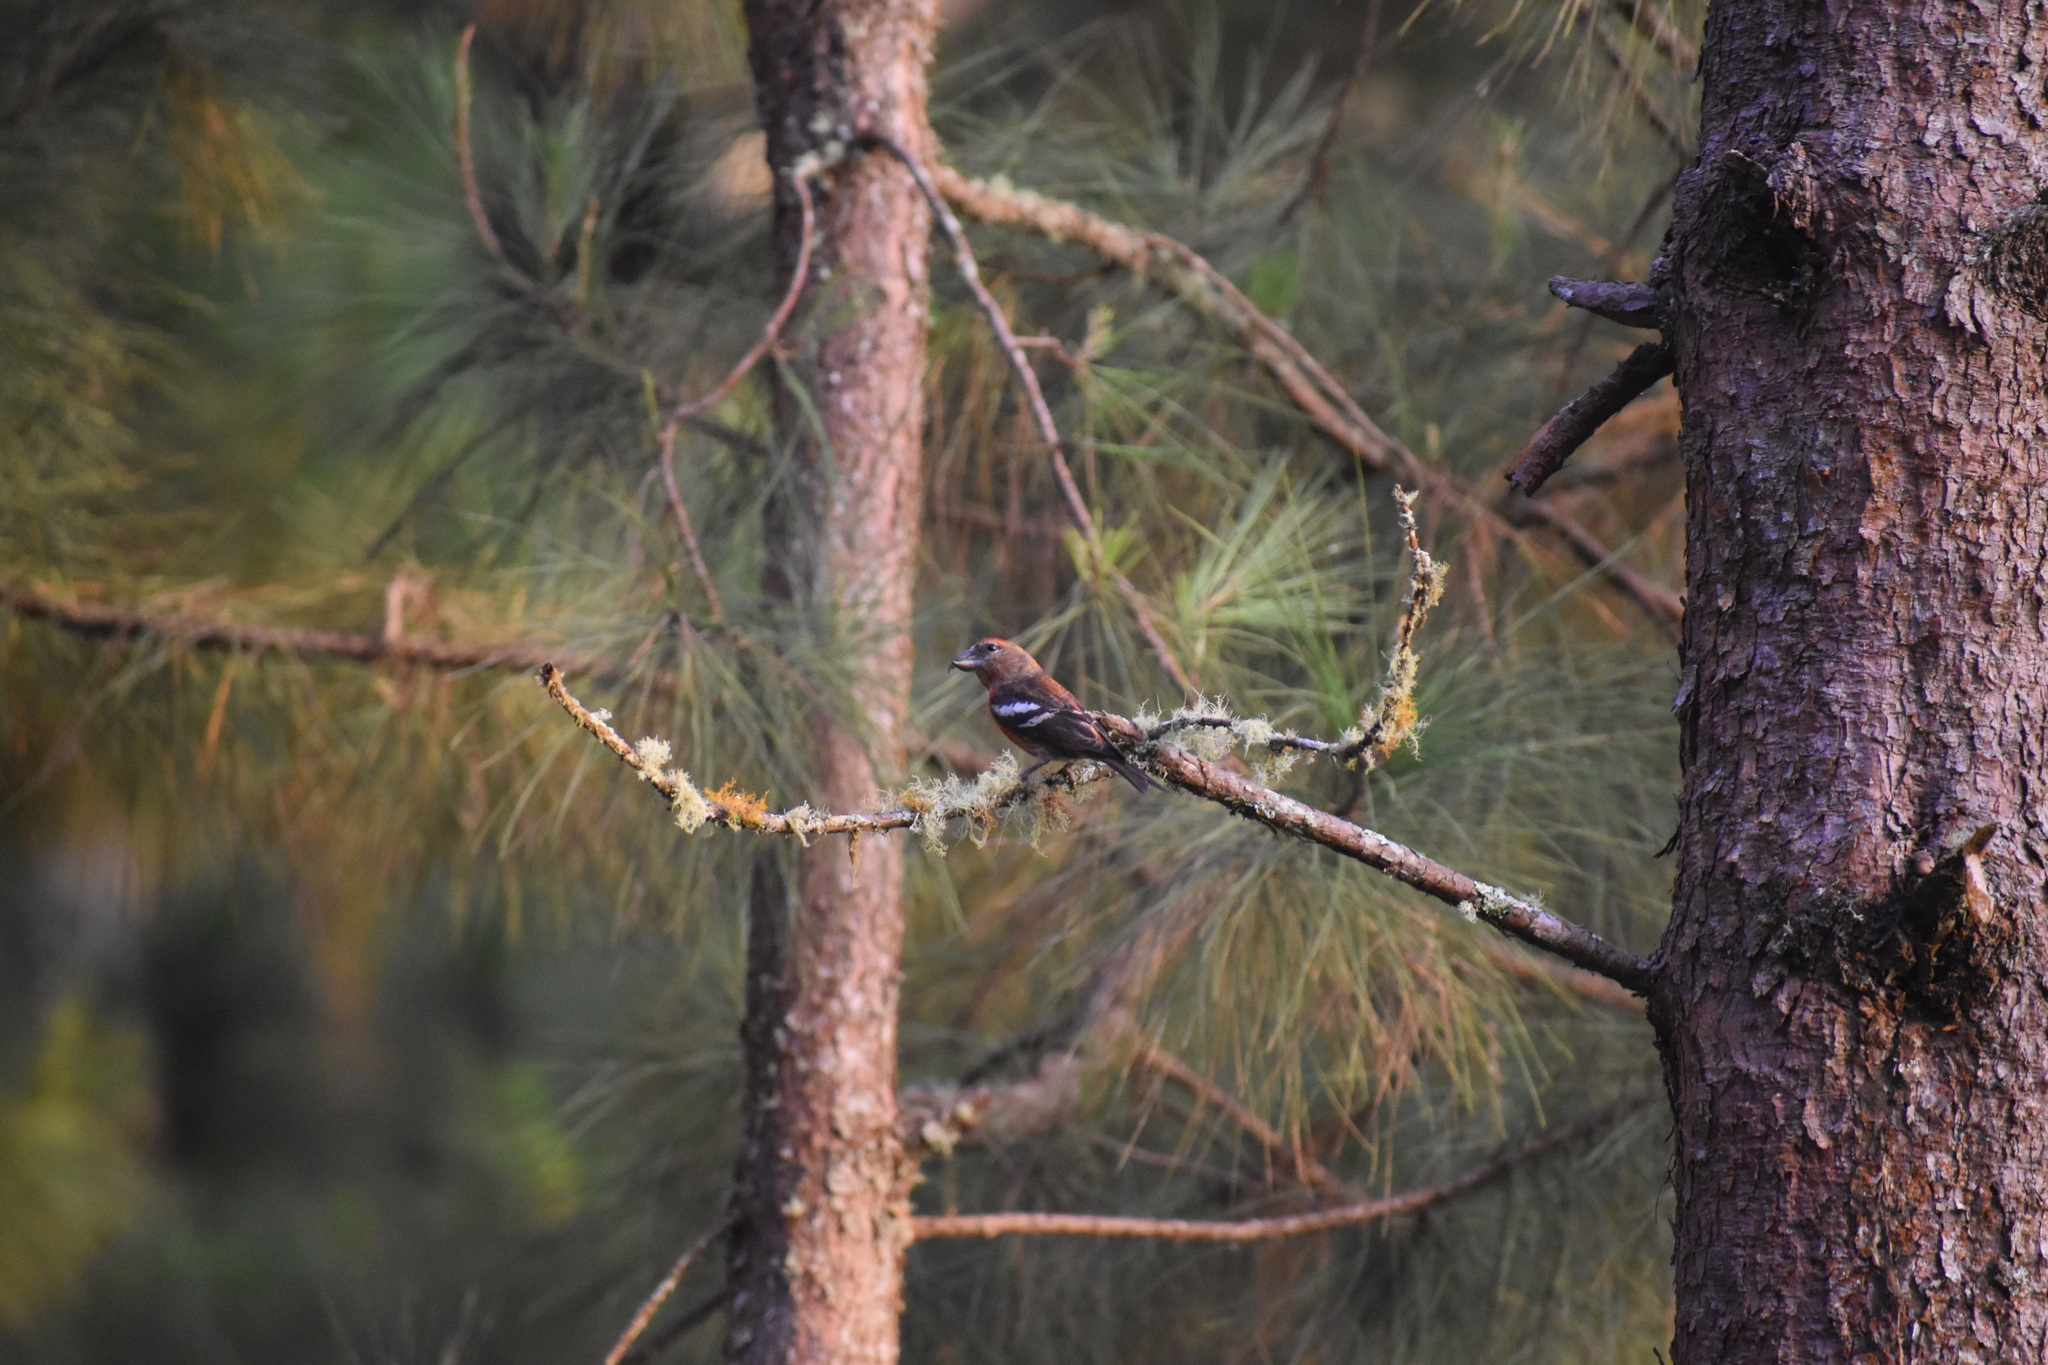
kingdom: Animalia
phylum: Chordata
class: Aves
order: Passeriformes
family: Fringillidae
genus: Loxia
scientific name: Loxia megaplaga
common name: Hispaniolan crossbill
